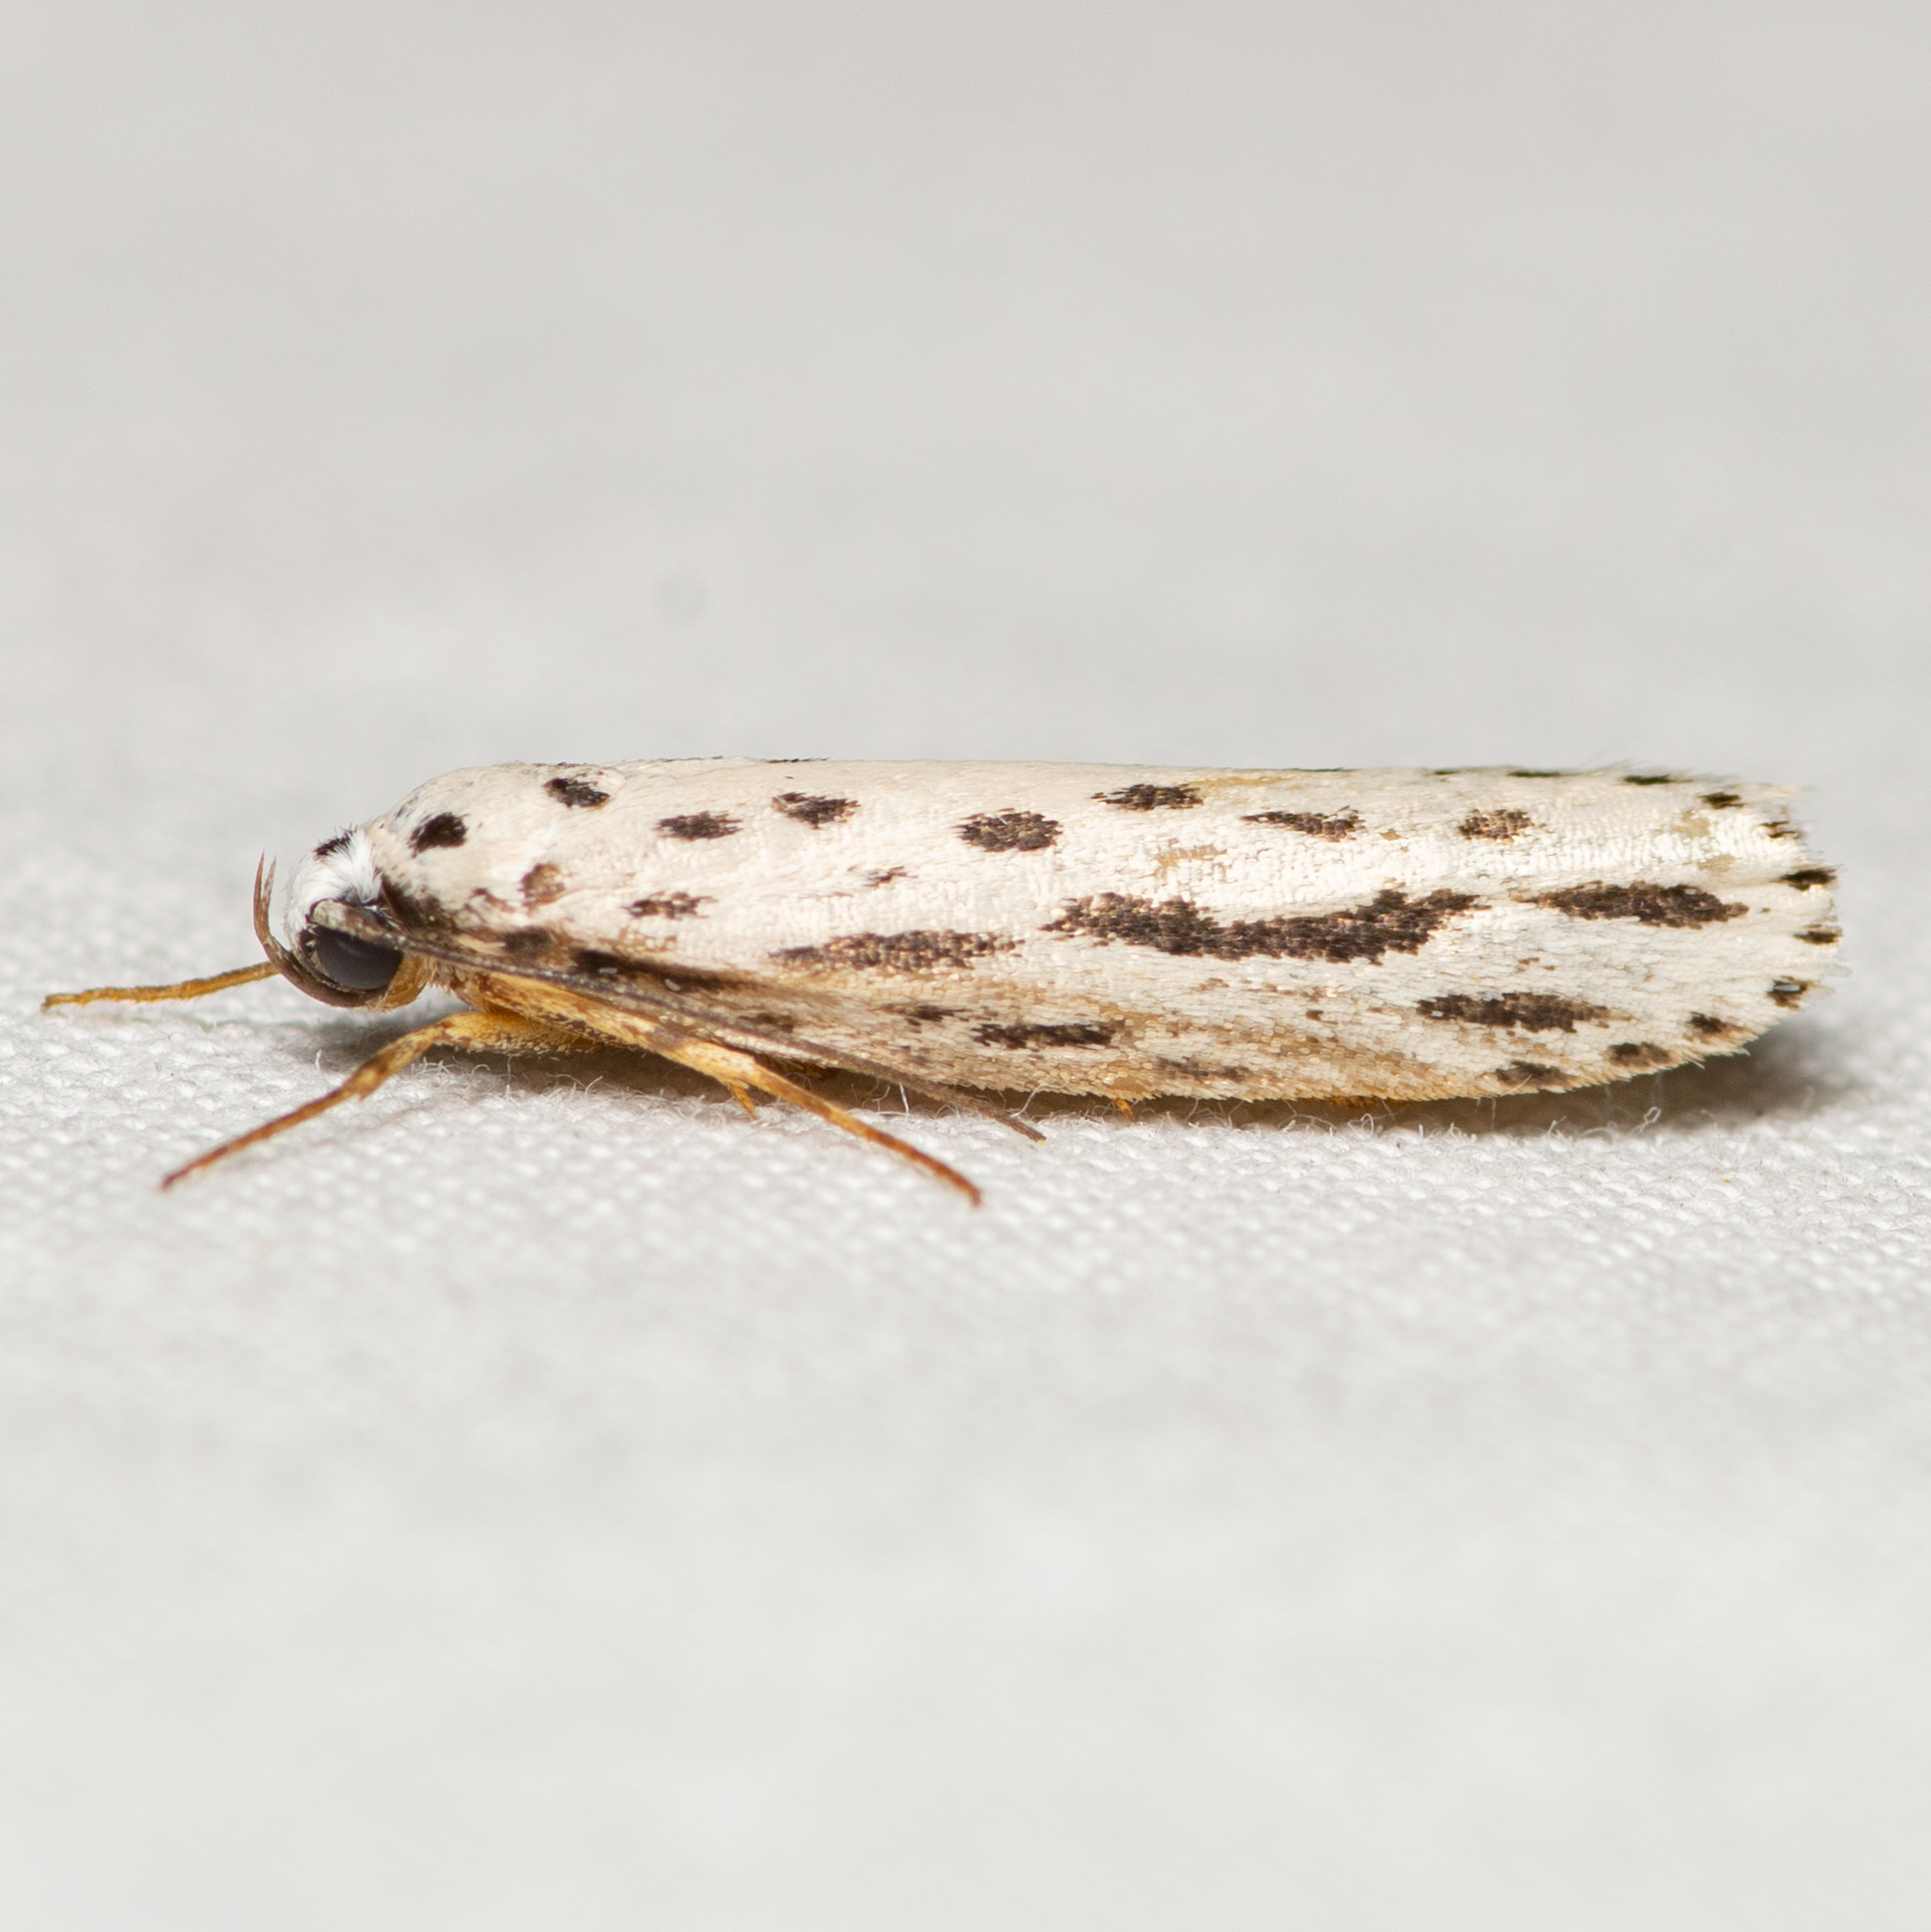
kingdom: Animalia
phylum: Arthropoda
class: Insecta
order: Lepidoptera
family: Ethmiidae
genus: Ethmia
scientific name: Ethmia zelleriella
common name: Zeller's ethmia
